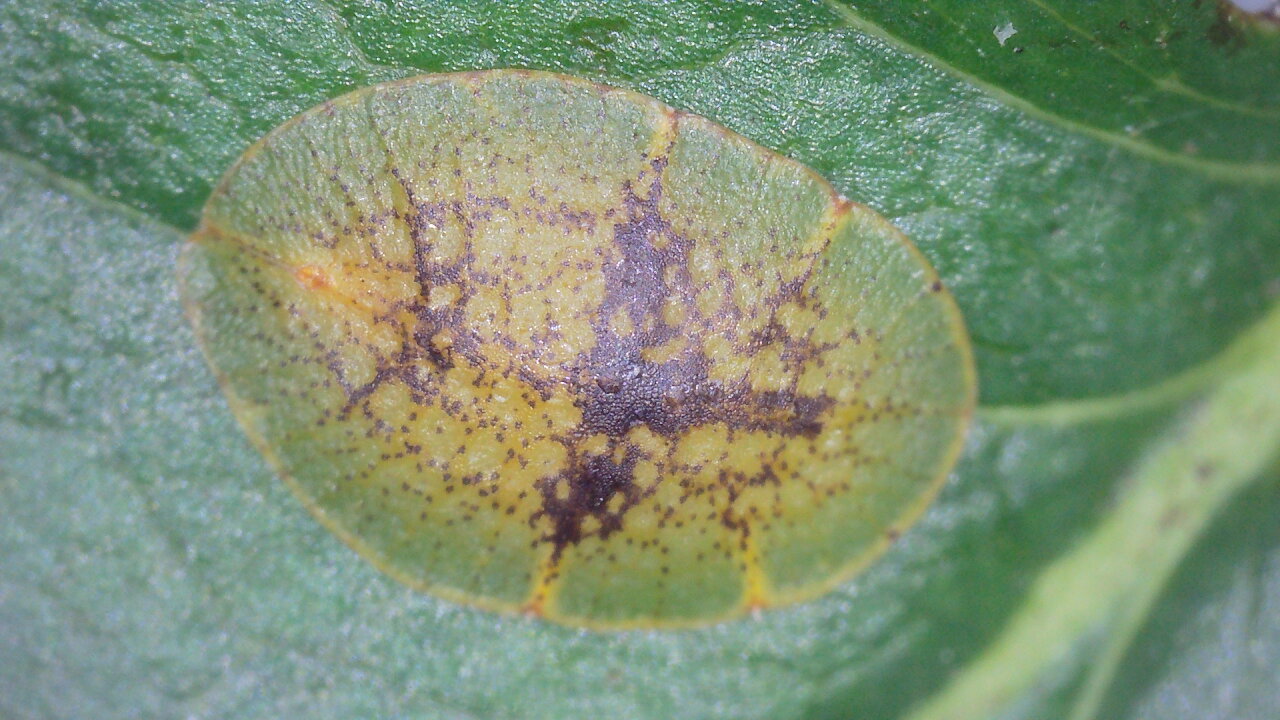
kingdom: Animalia
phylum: Arthropoda
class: Insecta
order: Hemiptera
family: Coccidae
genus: Coccus
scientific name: Coccus hesperidum
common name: Soft brown scale
